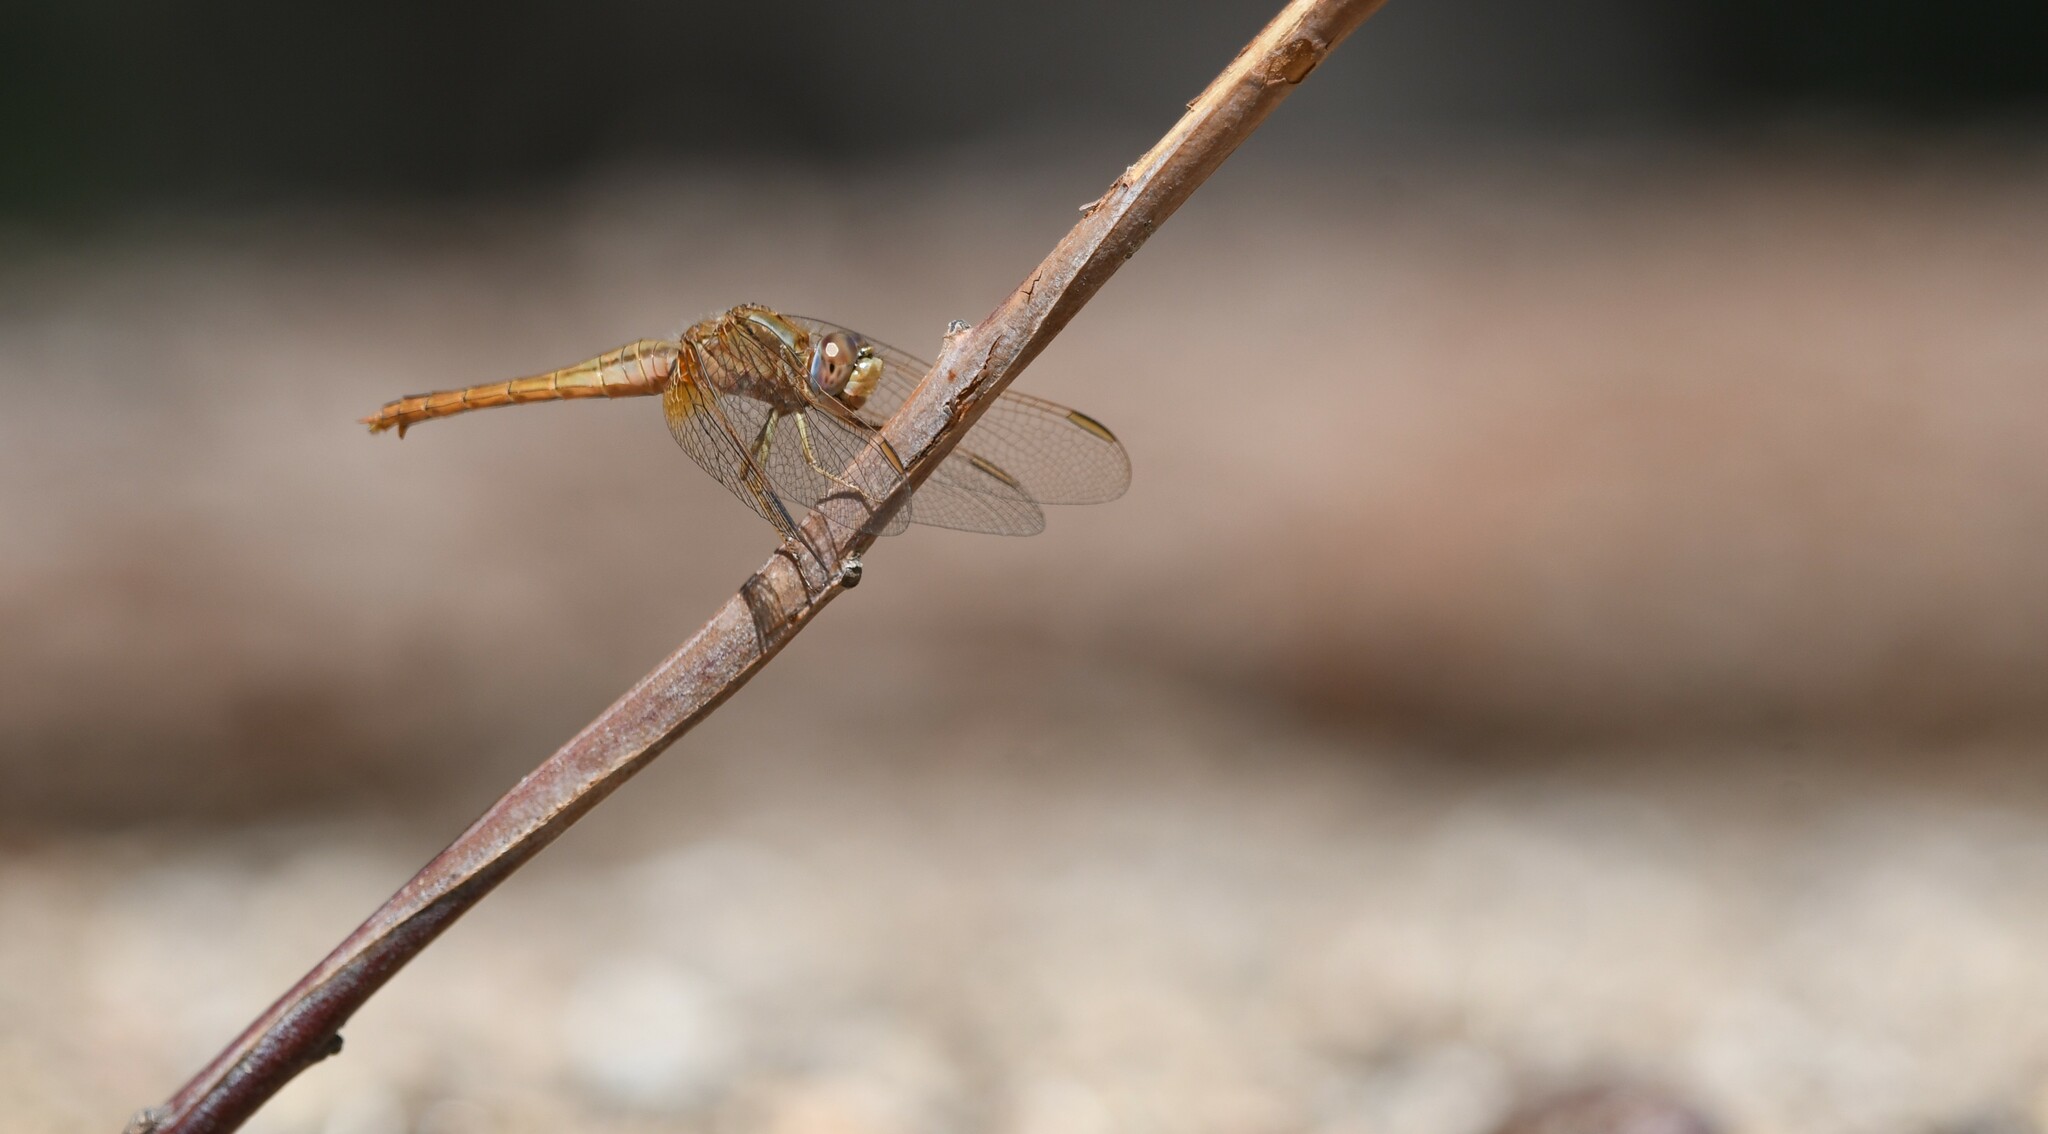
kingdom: Animalia
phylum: Arthropoda
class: Insecta
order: Odonata
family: Libellulidae
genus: Crocothemis
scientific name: Crocothemis erythraea
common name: Scarlet dragonfly
